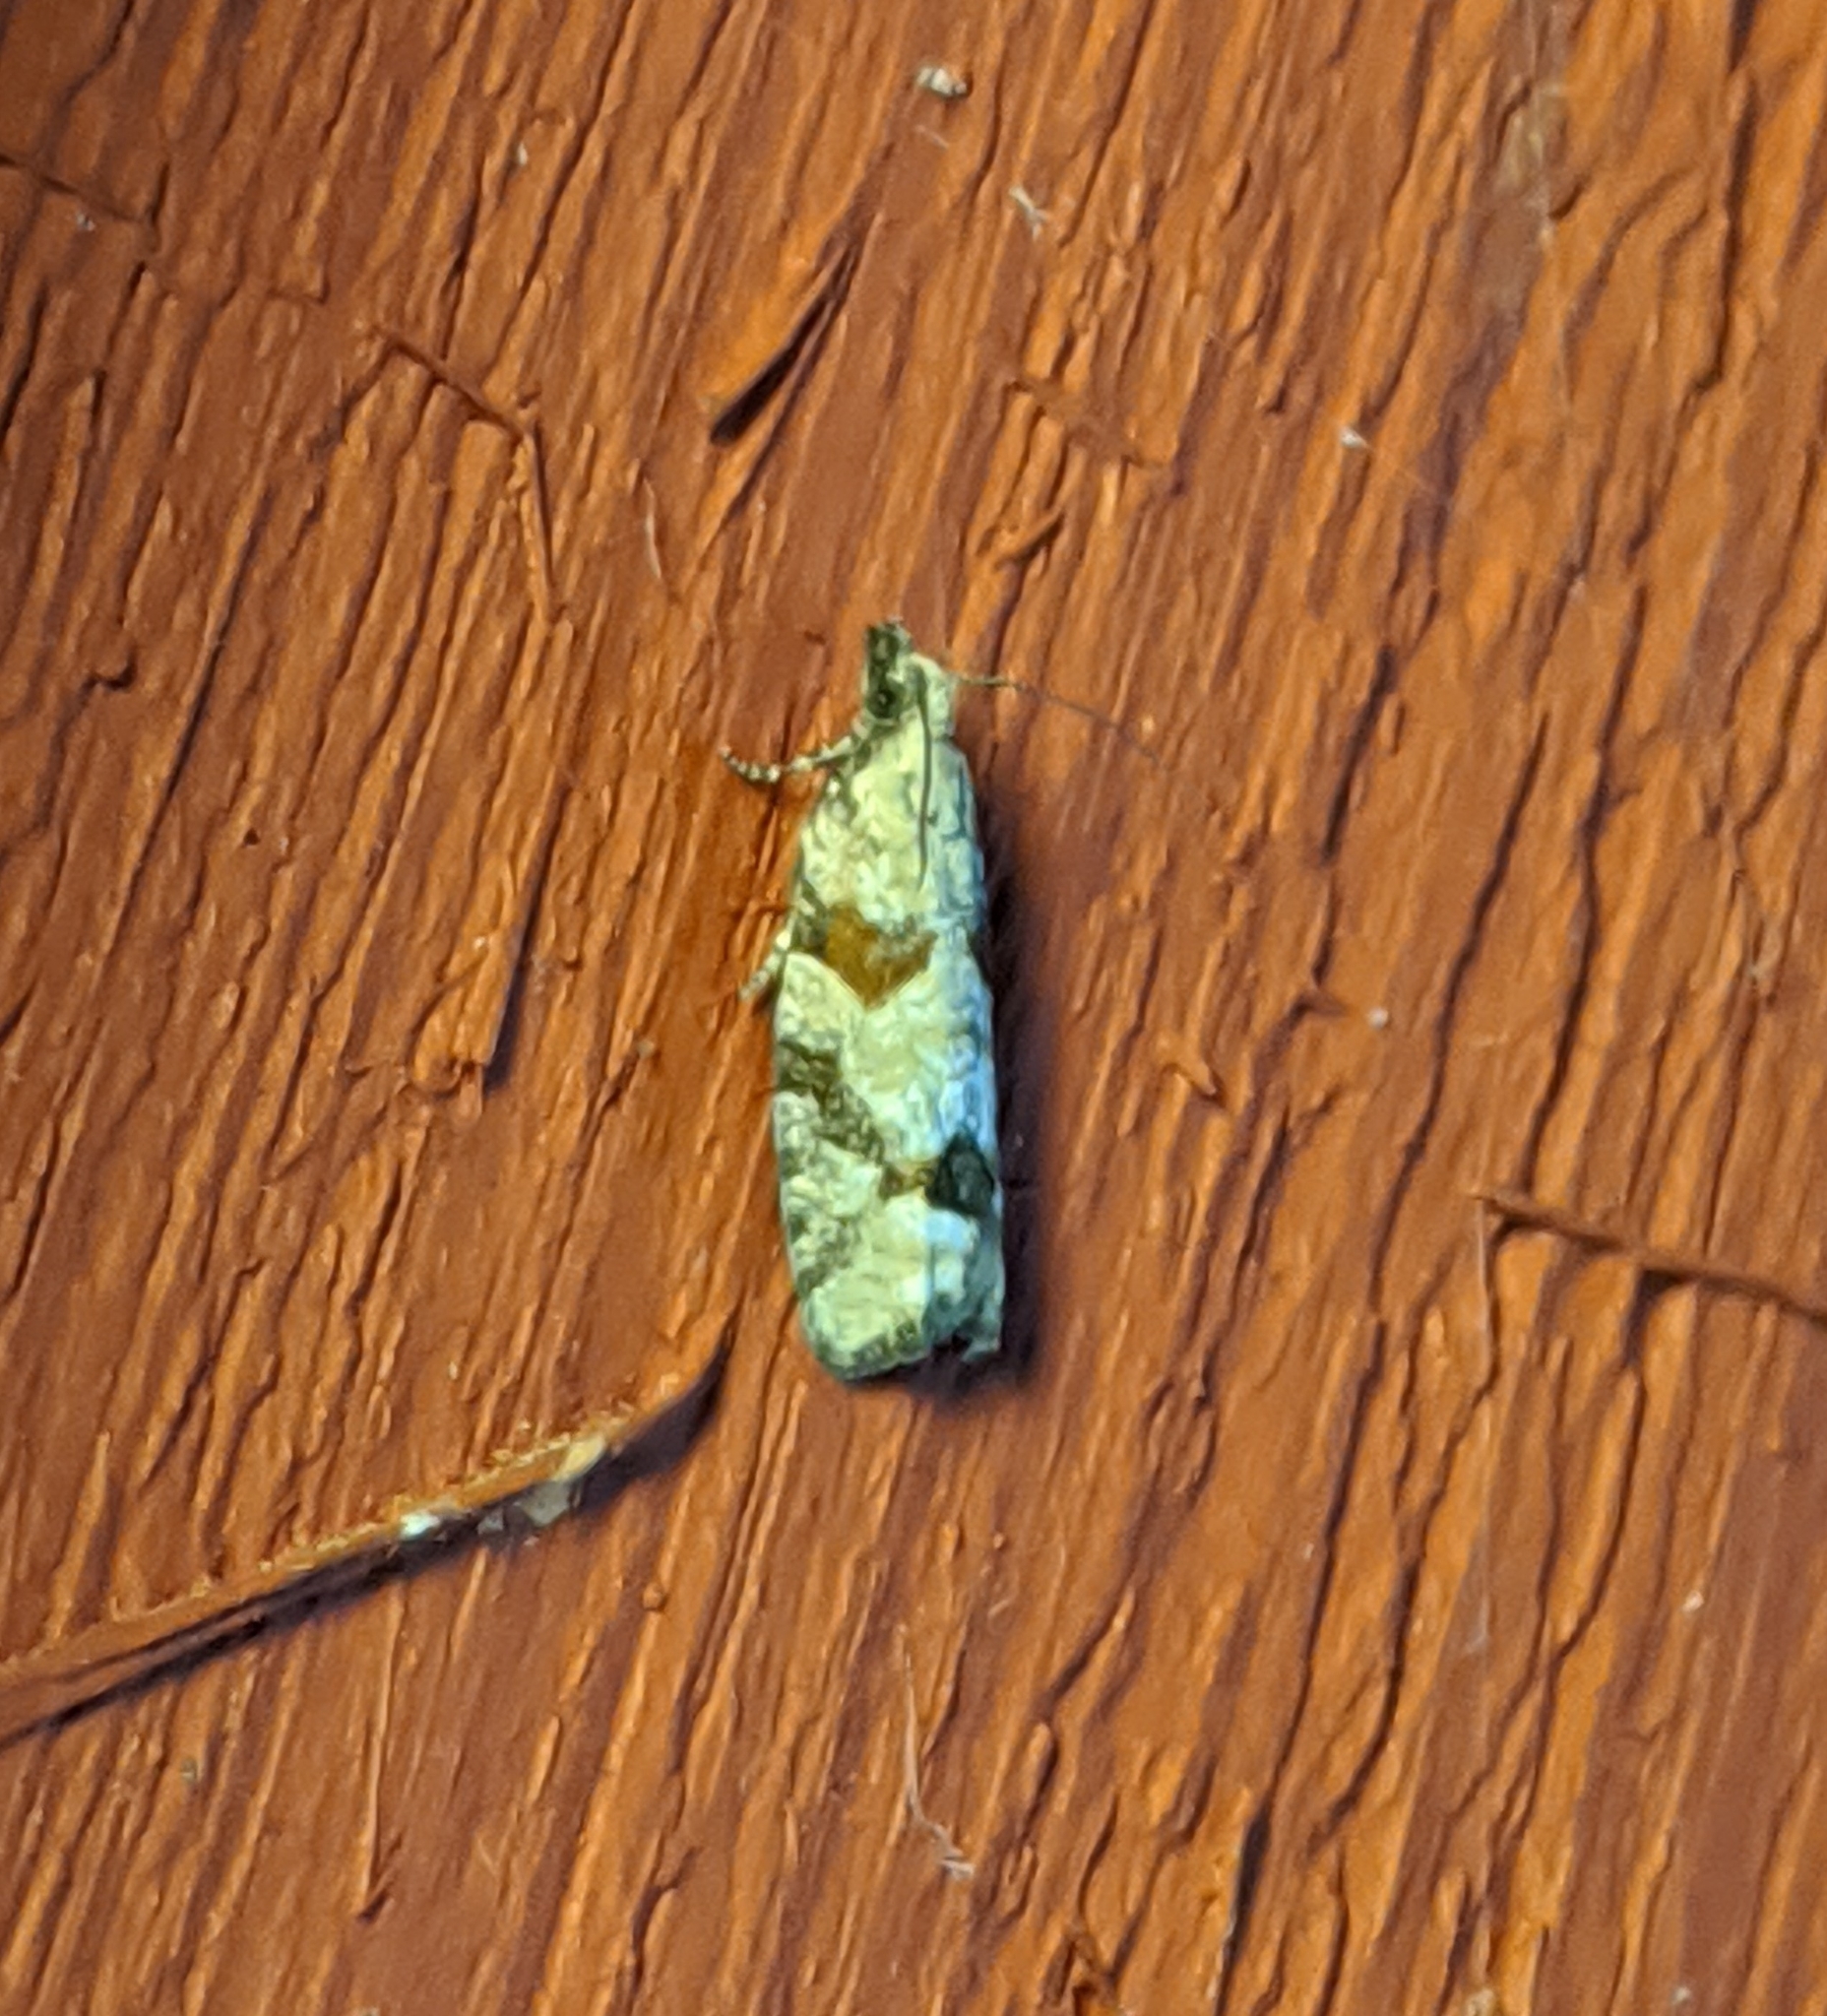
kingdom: Animalia
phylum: Arthropoda
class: Insecta
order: Lepidoptera
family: Tortricidae
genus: Epinotia
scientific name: Epinotia radicana
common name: Red-striped needleworm moth
